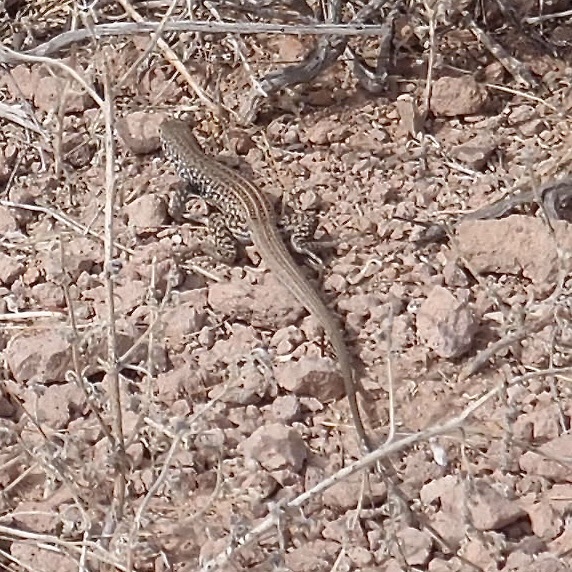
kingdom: Animalia
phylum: Chordata
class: Squamata
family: Teiidae
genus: Aspidoscelis
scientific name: Aspidoscelis tigris
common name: Tiger whiptail
